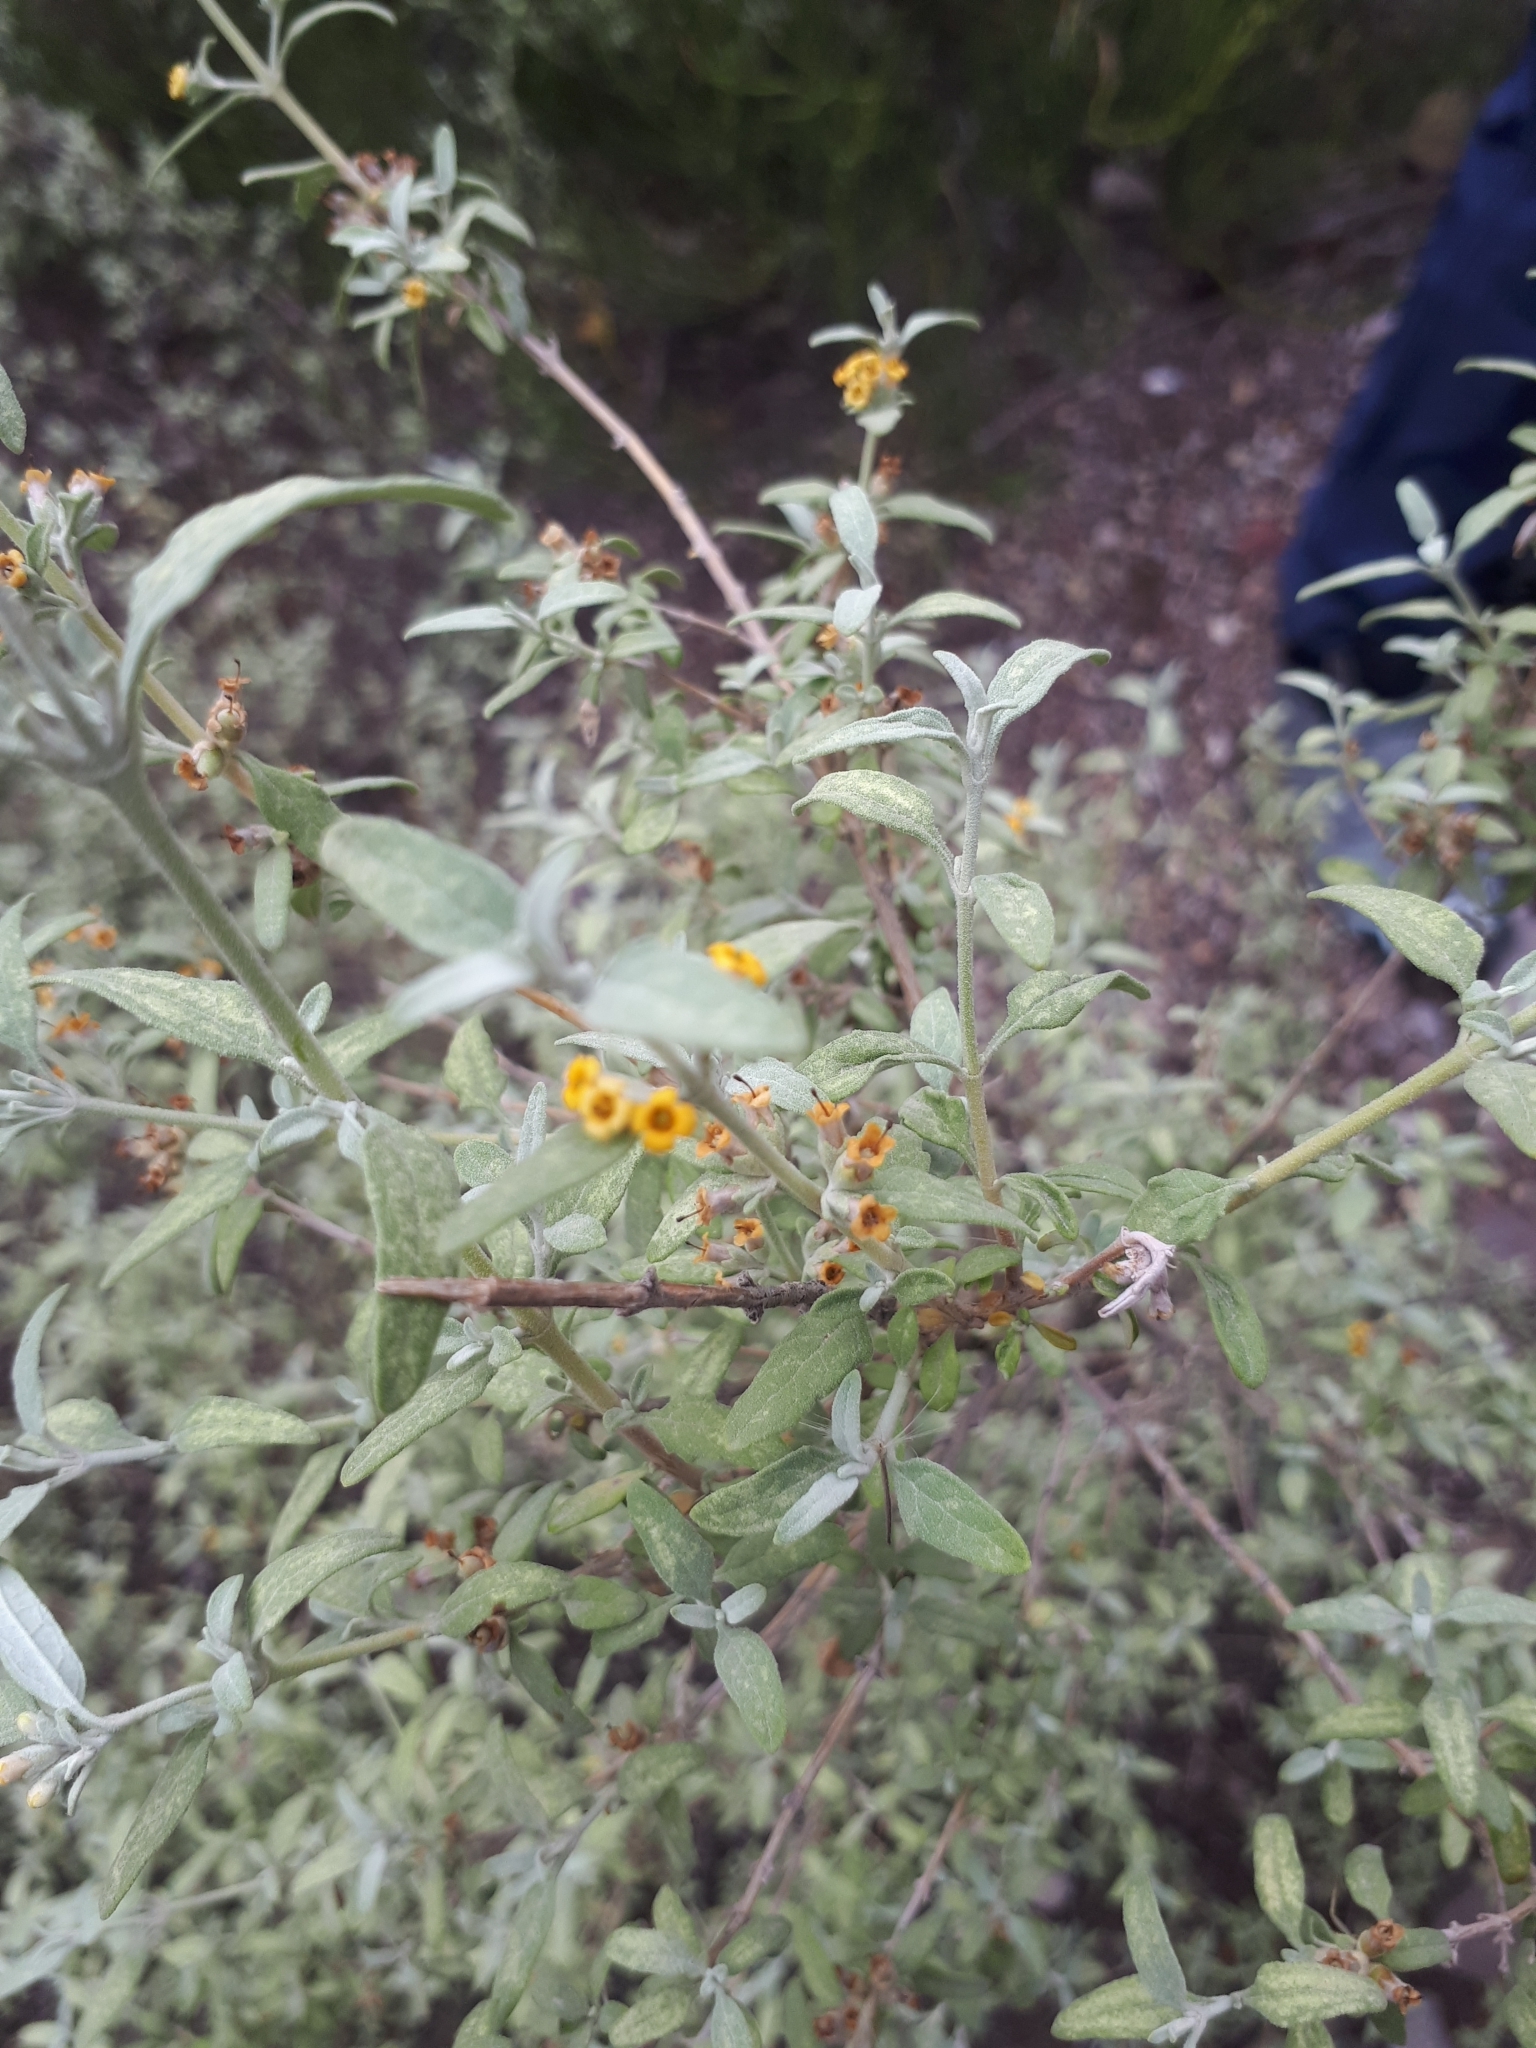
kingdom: Plantae
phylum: Tracheophyta
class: Magnoliopsida
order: Lamiales
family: Scrophulariaceae
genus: Buddleja
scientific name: Buddleja mendozensis
